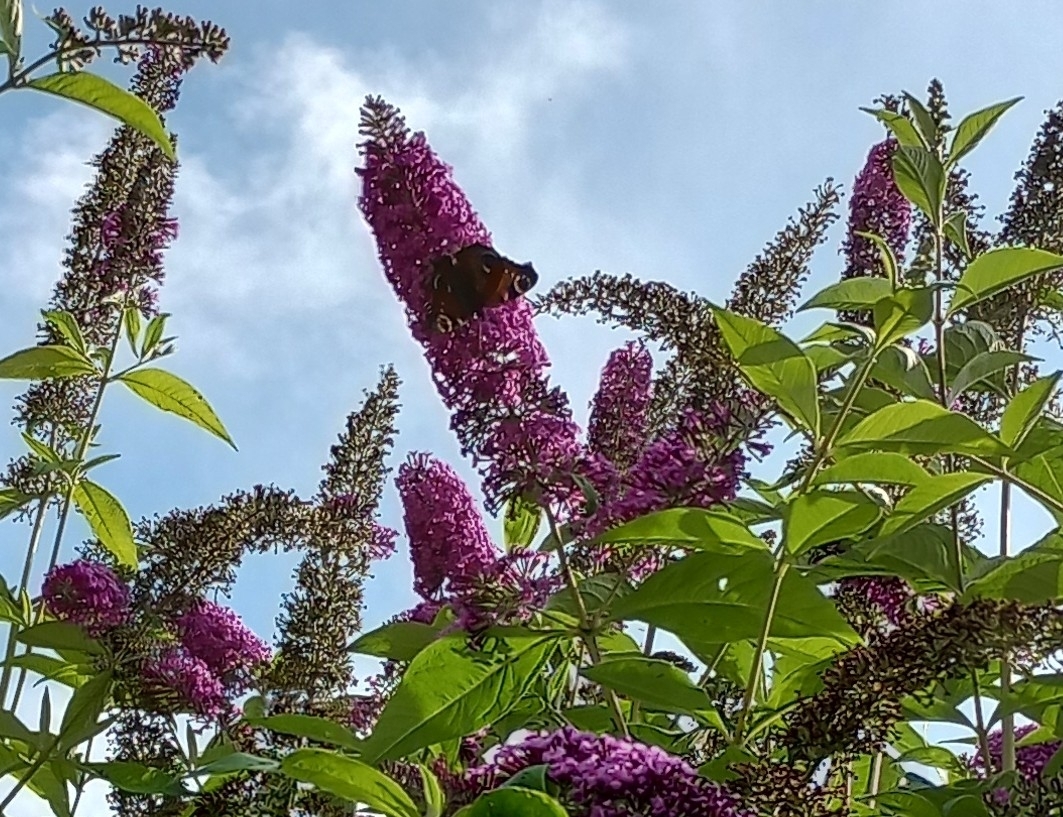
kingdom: Animalia
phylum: Arthropoda
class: Insecta
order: Lepidoptera
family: Nymphalidae
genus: Aglais
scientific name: Aglais io
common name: Peacock
